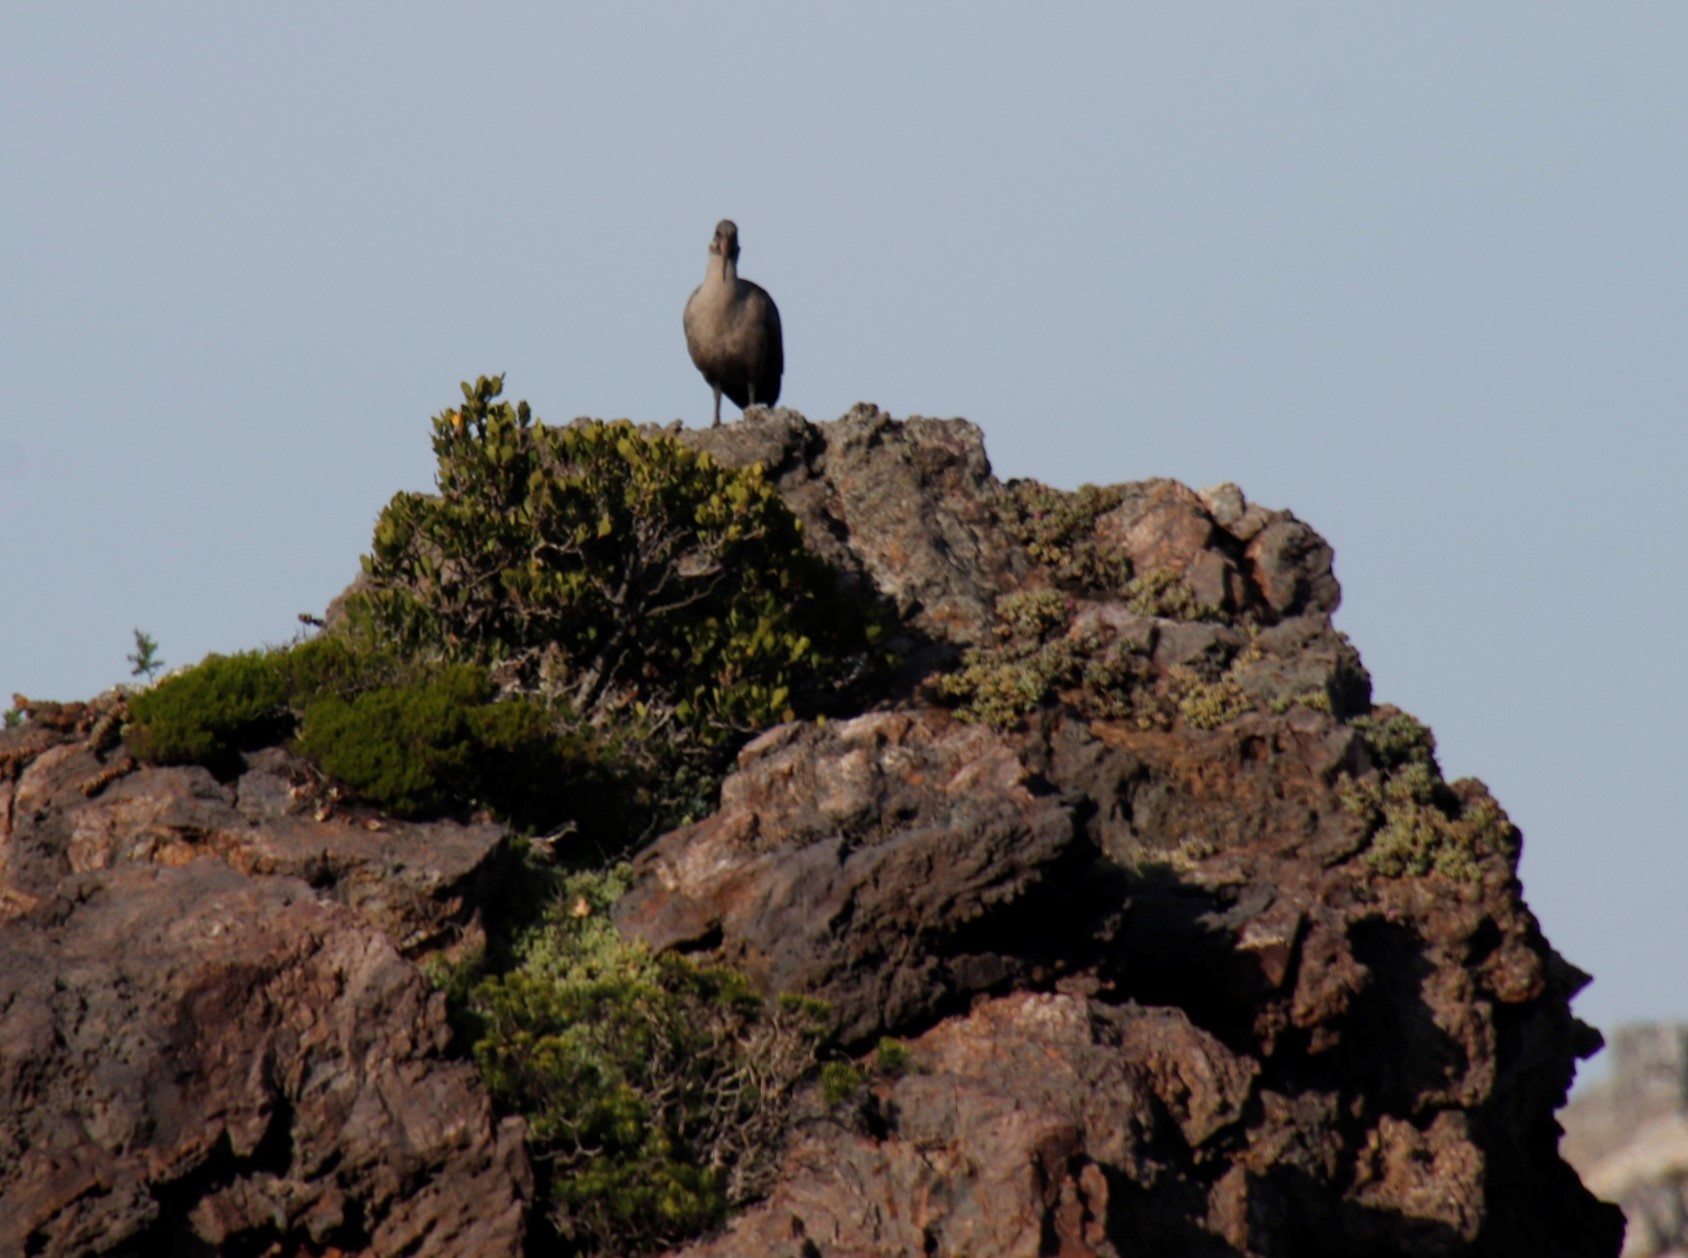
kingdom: Animalia
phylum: Chordata
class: Aves
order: Pelecaniformes
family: Threskiornithidae
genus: Bostrychia
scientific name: Bostrychia hagedash
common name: Hadada ibis
